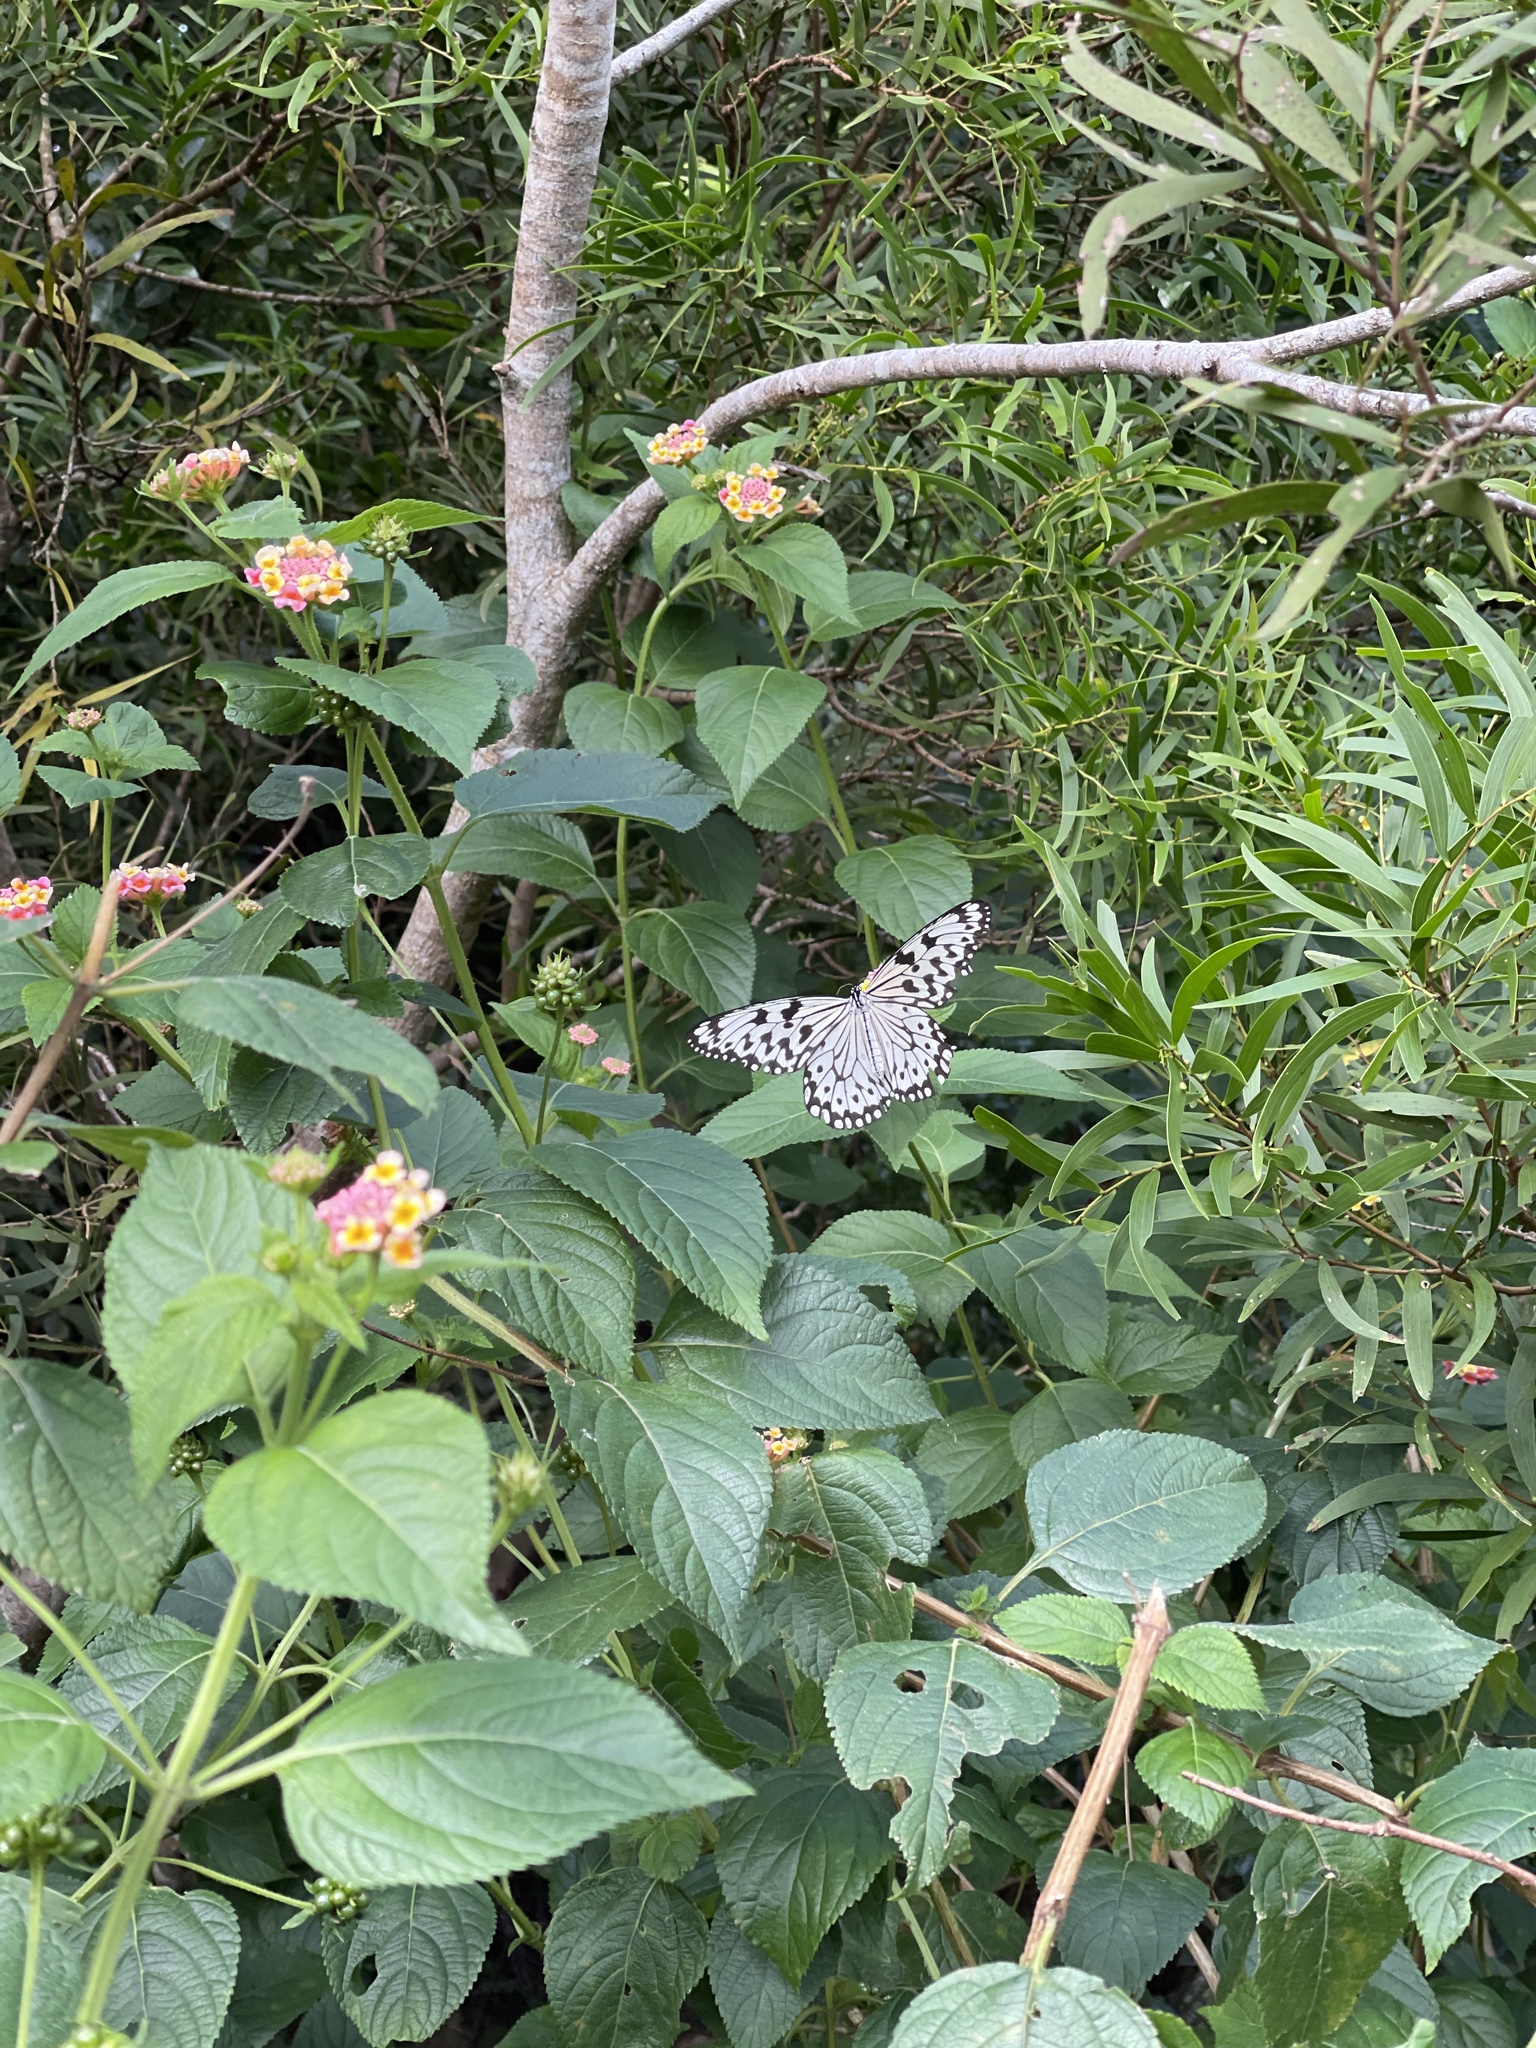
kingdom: Animalia
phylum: Arthropoda
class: Insecta
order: Lepidoptera
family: Nymphalidae
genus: Idea
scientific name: Idea leuconoe
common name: Rice paper butterfly
